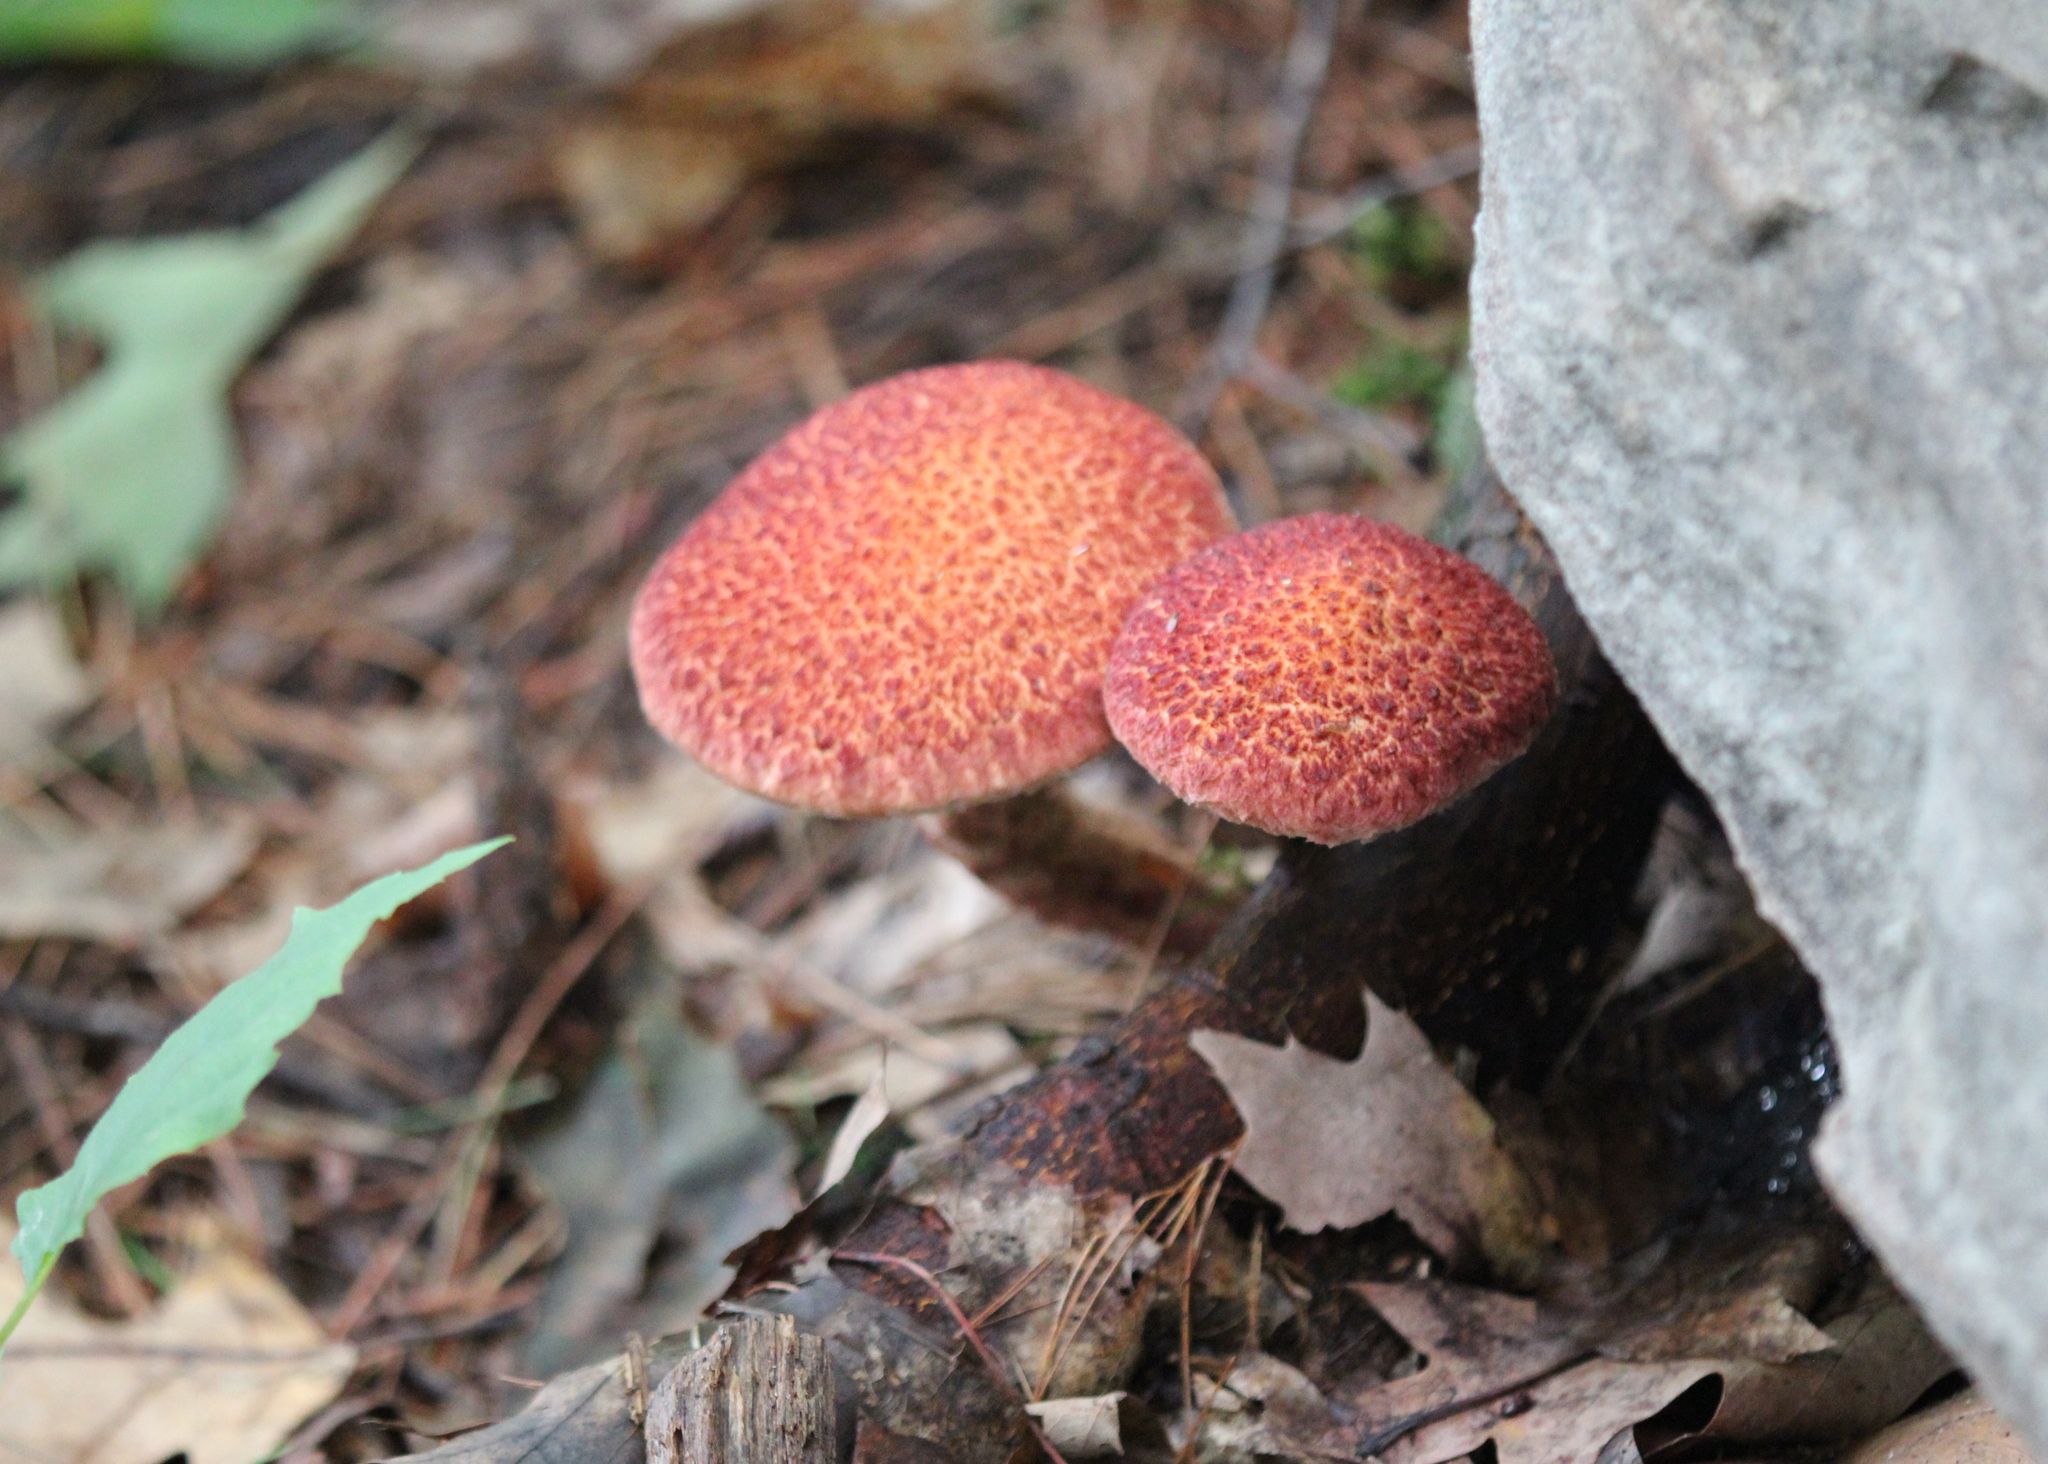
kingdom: Fungi
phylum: Basidiomycota
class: Agaricomycetes
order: Boletales
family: Suillaceae
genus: Suillus
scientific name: Suillus spraguei
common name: Painted suillus
